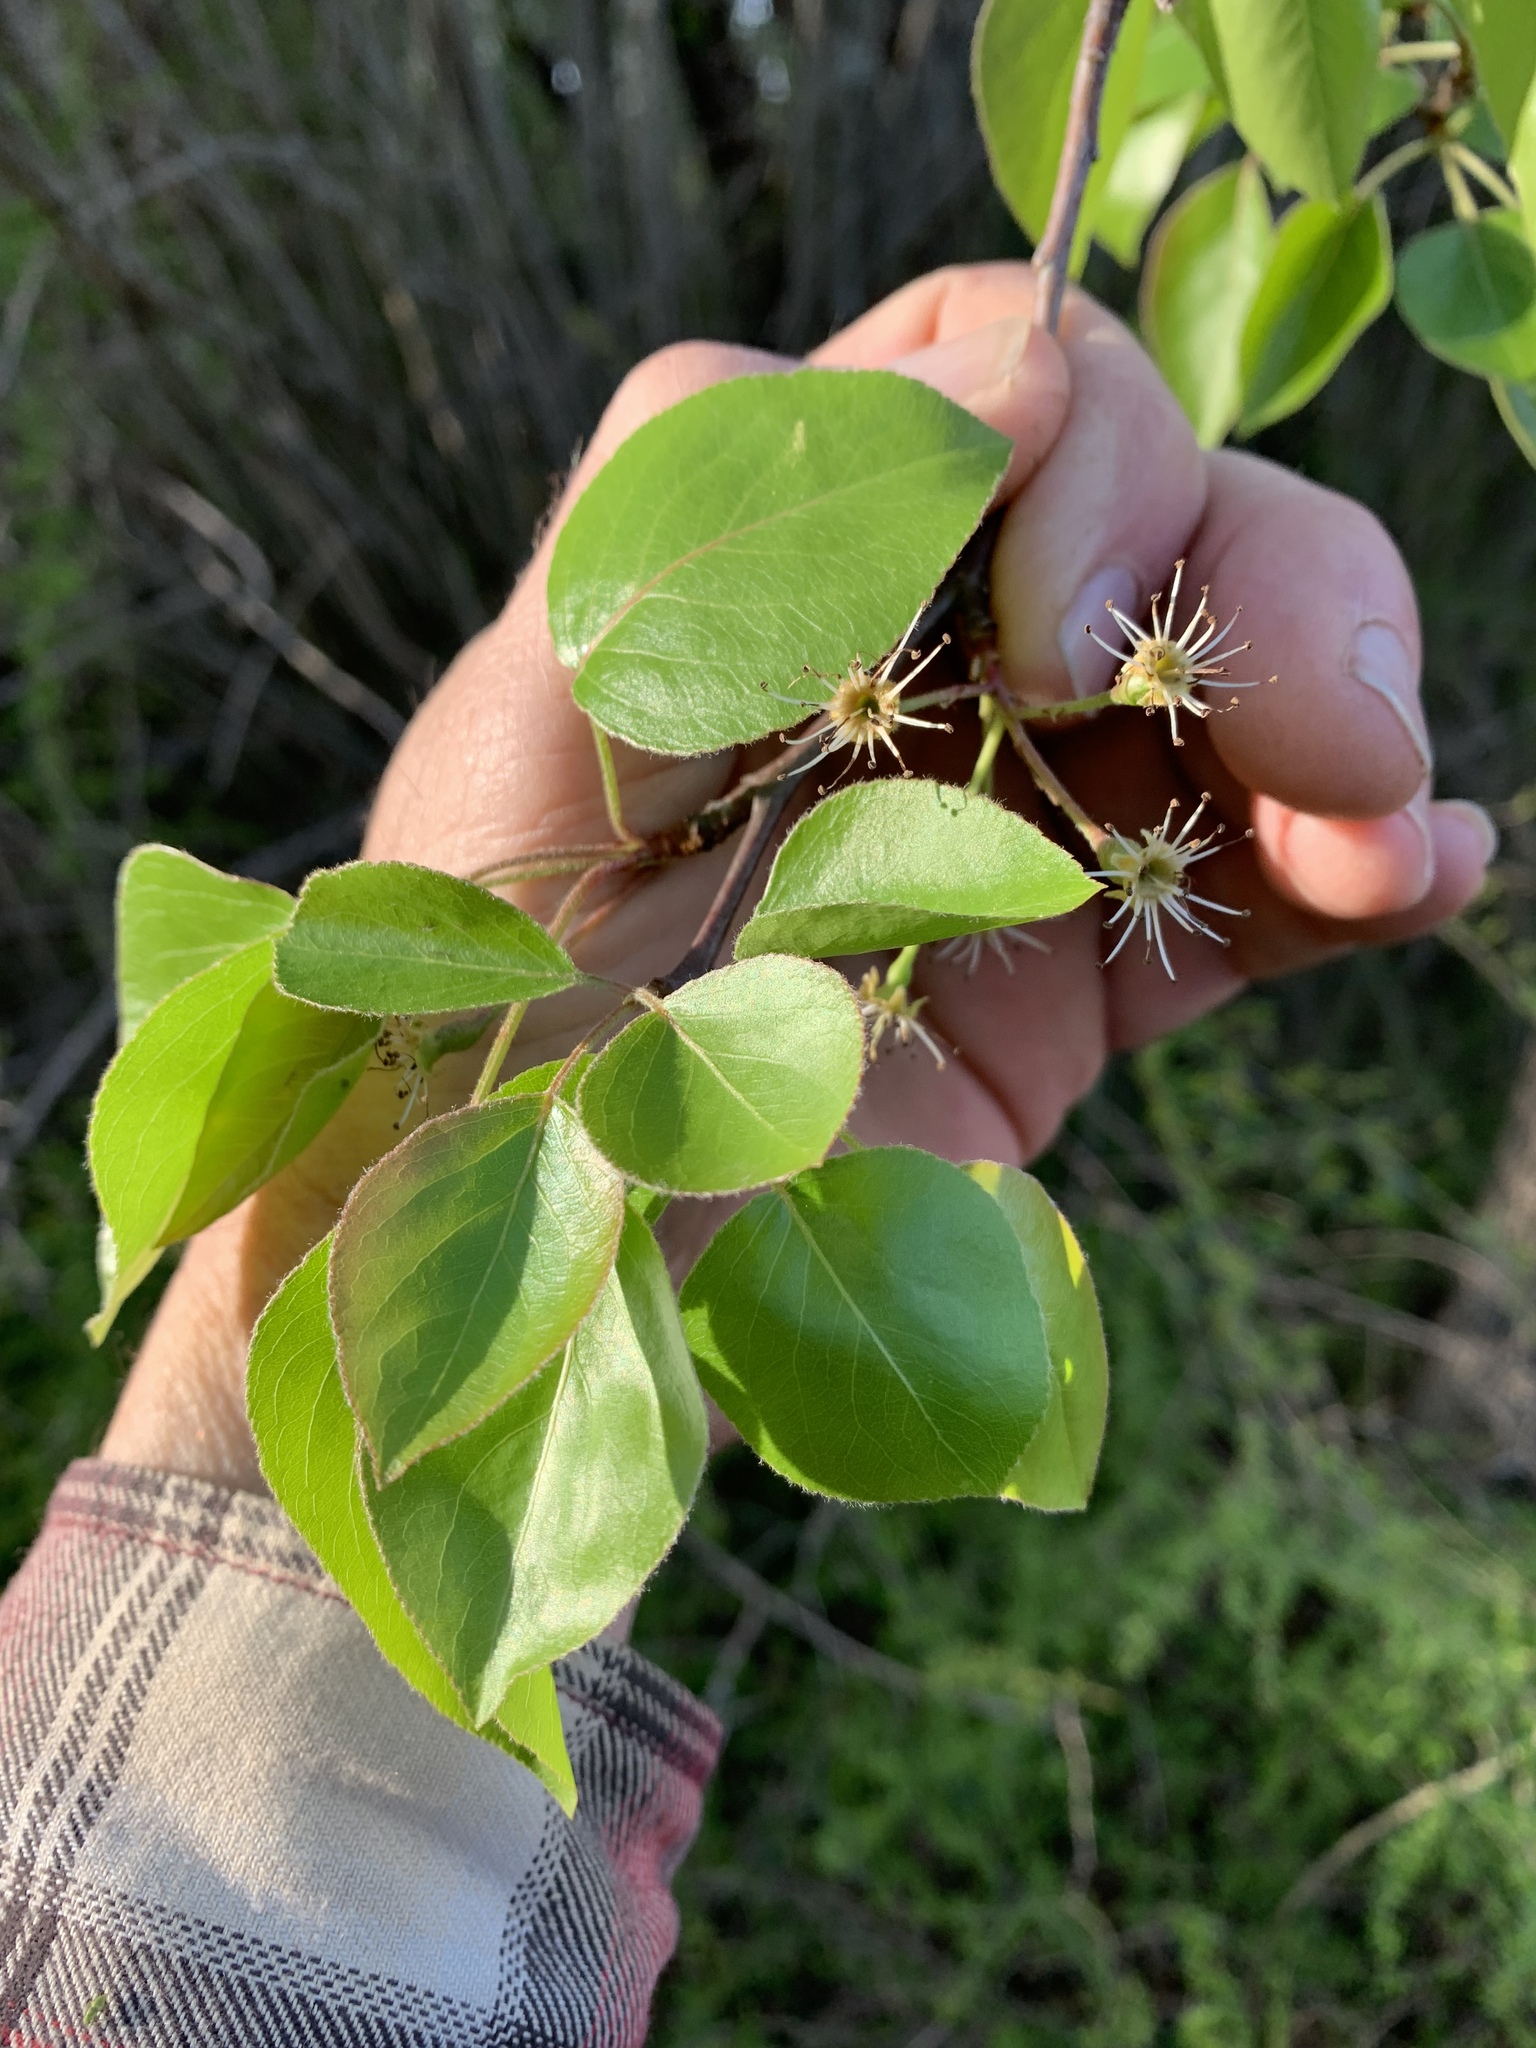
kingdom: Plantae
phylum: Tracheophyta
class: Magnoliopsida
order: Rosales
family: Rosaceae
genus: Pyrus
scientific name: Pyrus calleryana
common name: Callery pear
